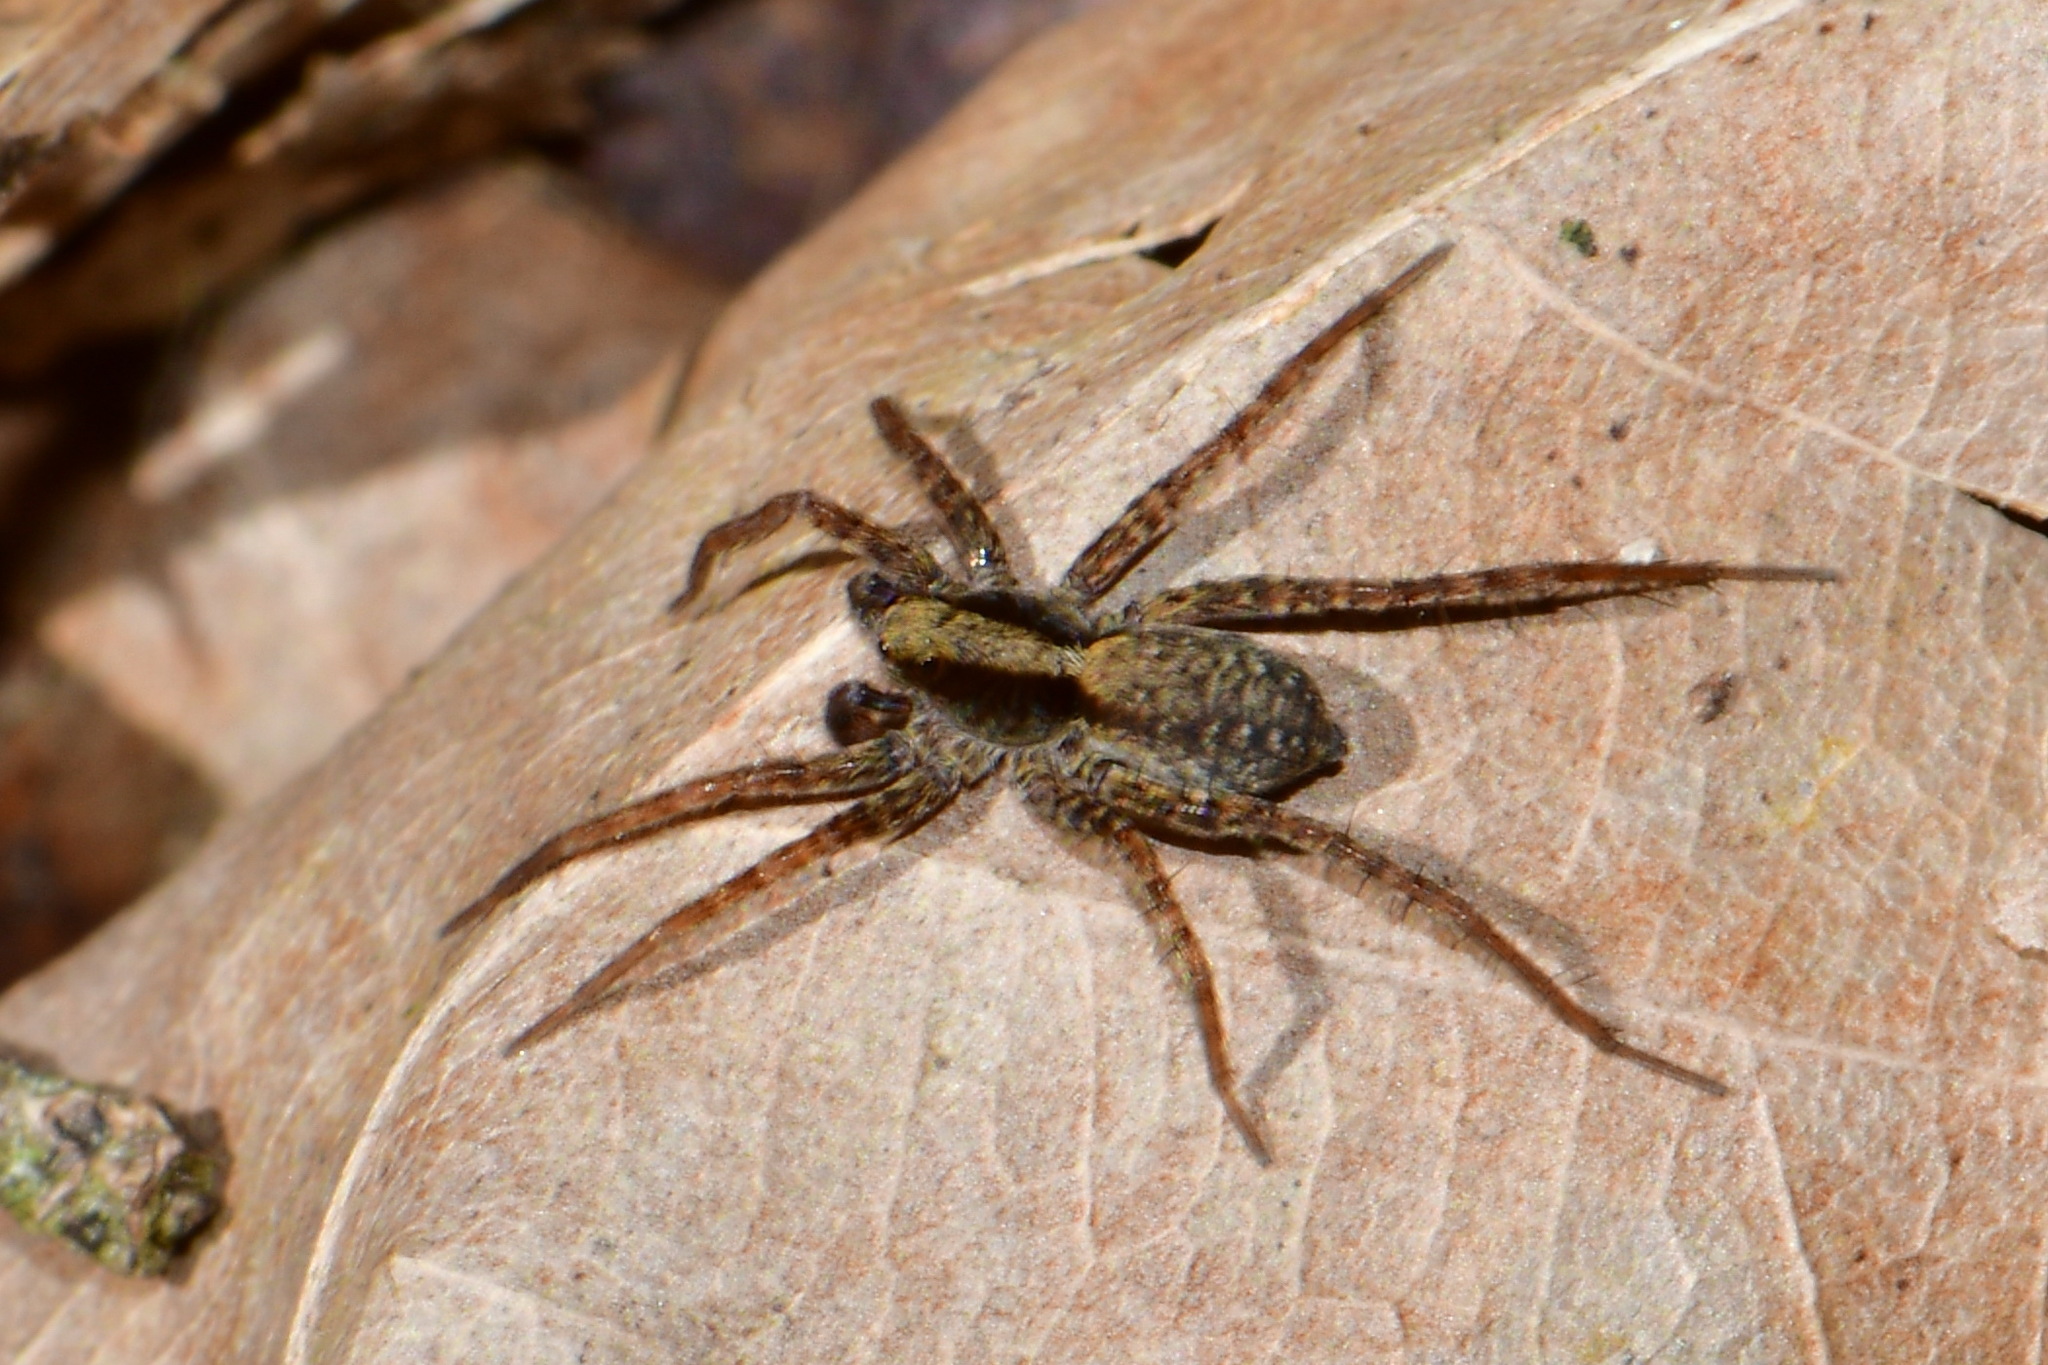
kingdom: Animalia
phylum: Arthropoda
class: Arachnida
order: Araneae
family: Lycosidae
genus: Pardosa
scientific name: Pardosa
